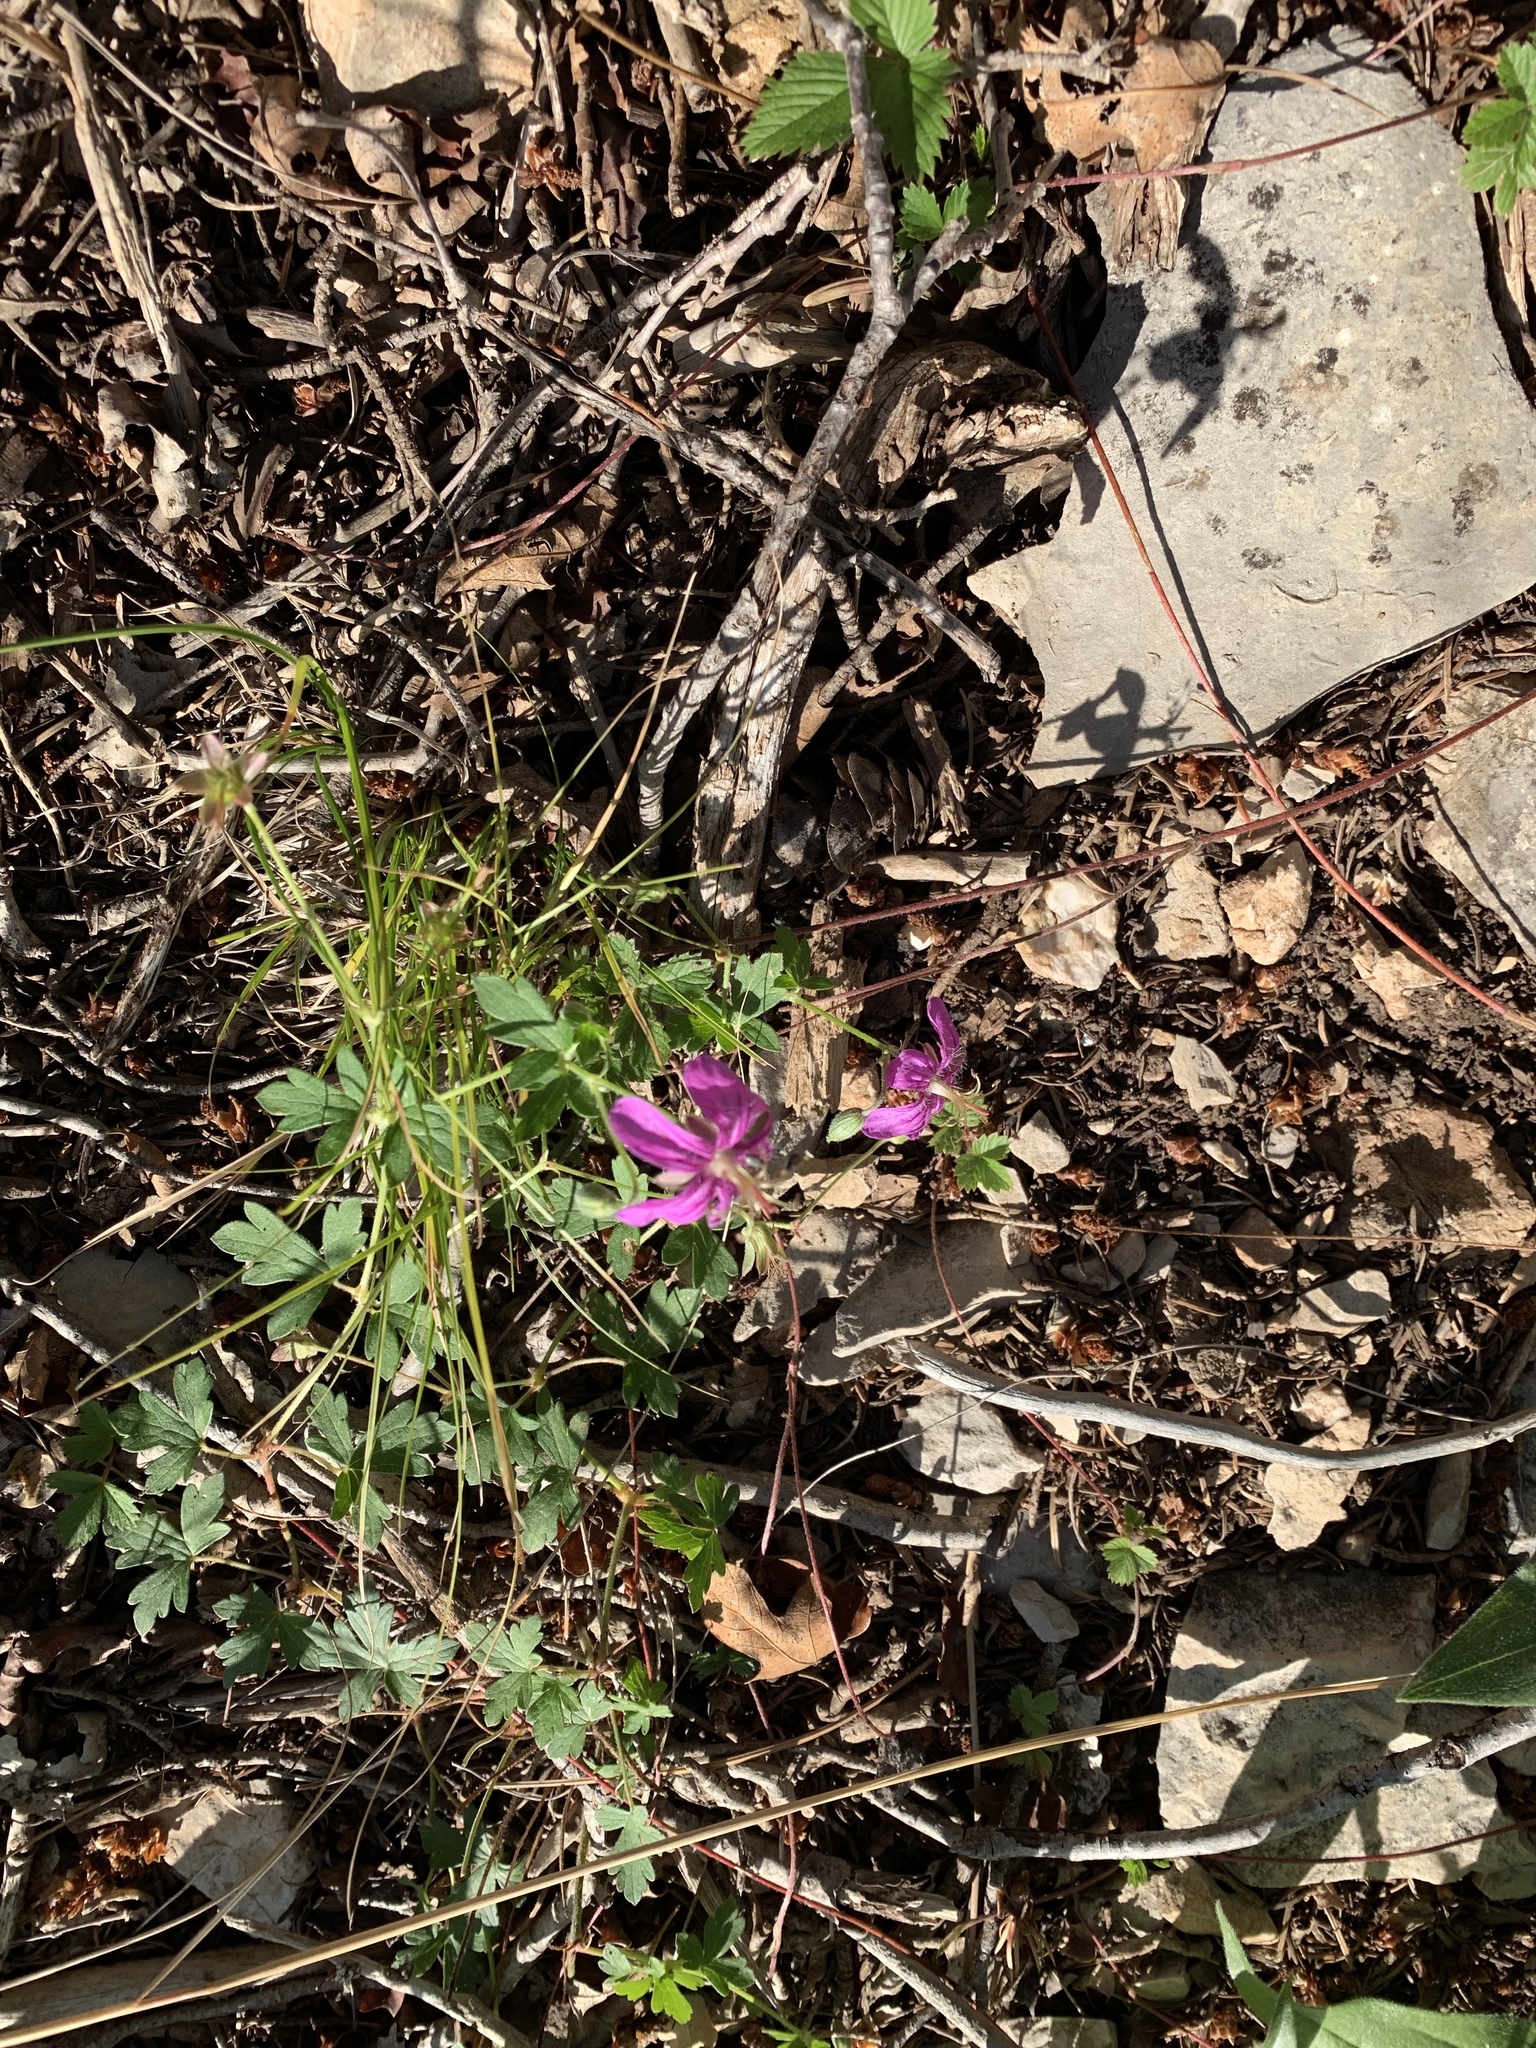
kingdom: Plantae
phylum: Tracheophyta
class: Magnoliopsida
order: Geraniales
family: Geraniaceae
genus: Geranium
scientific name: Geranium caespitosum
